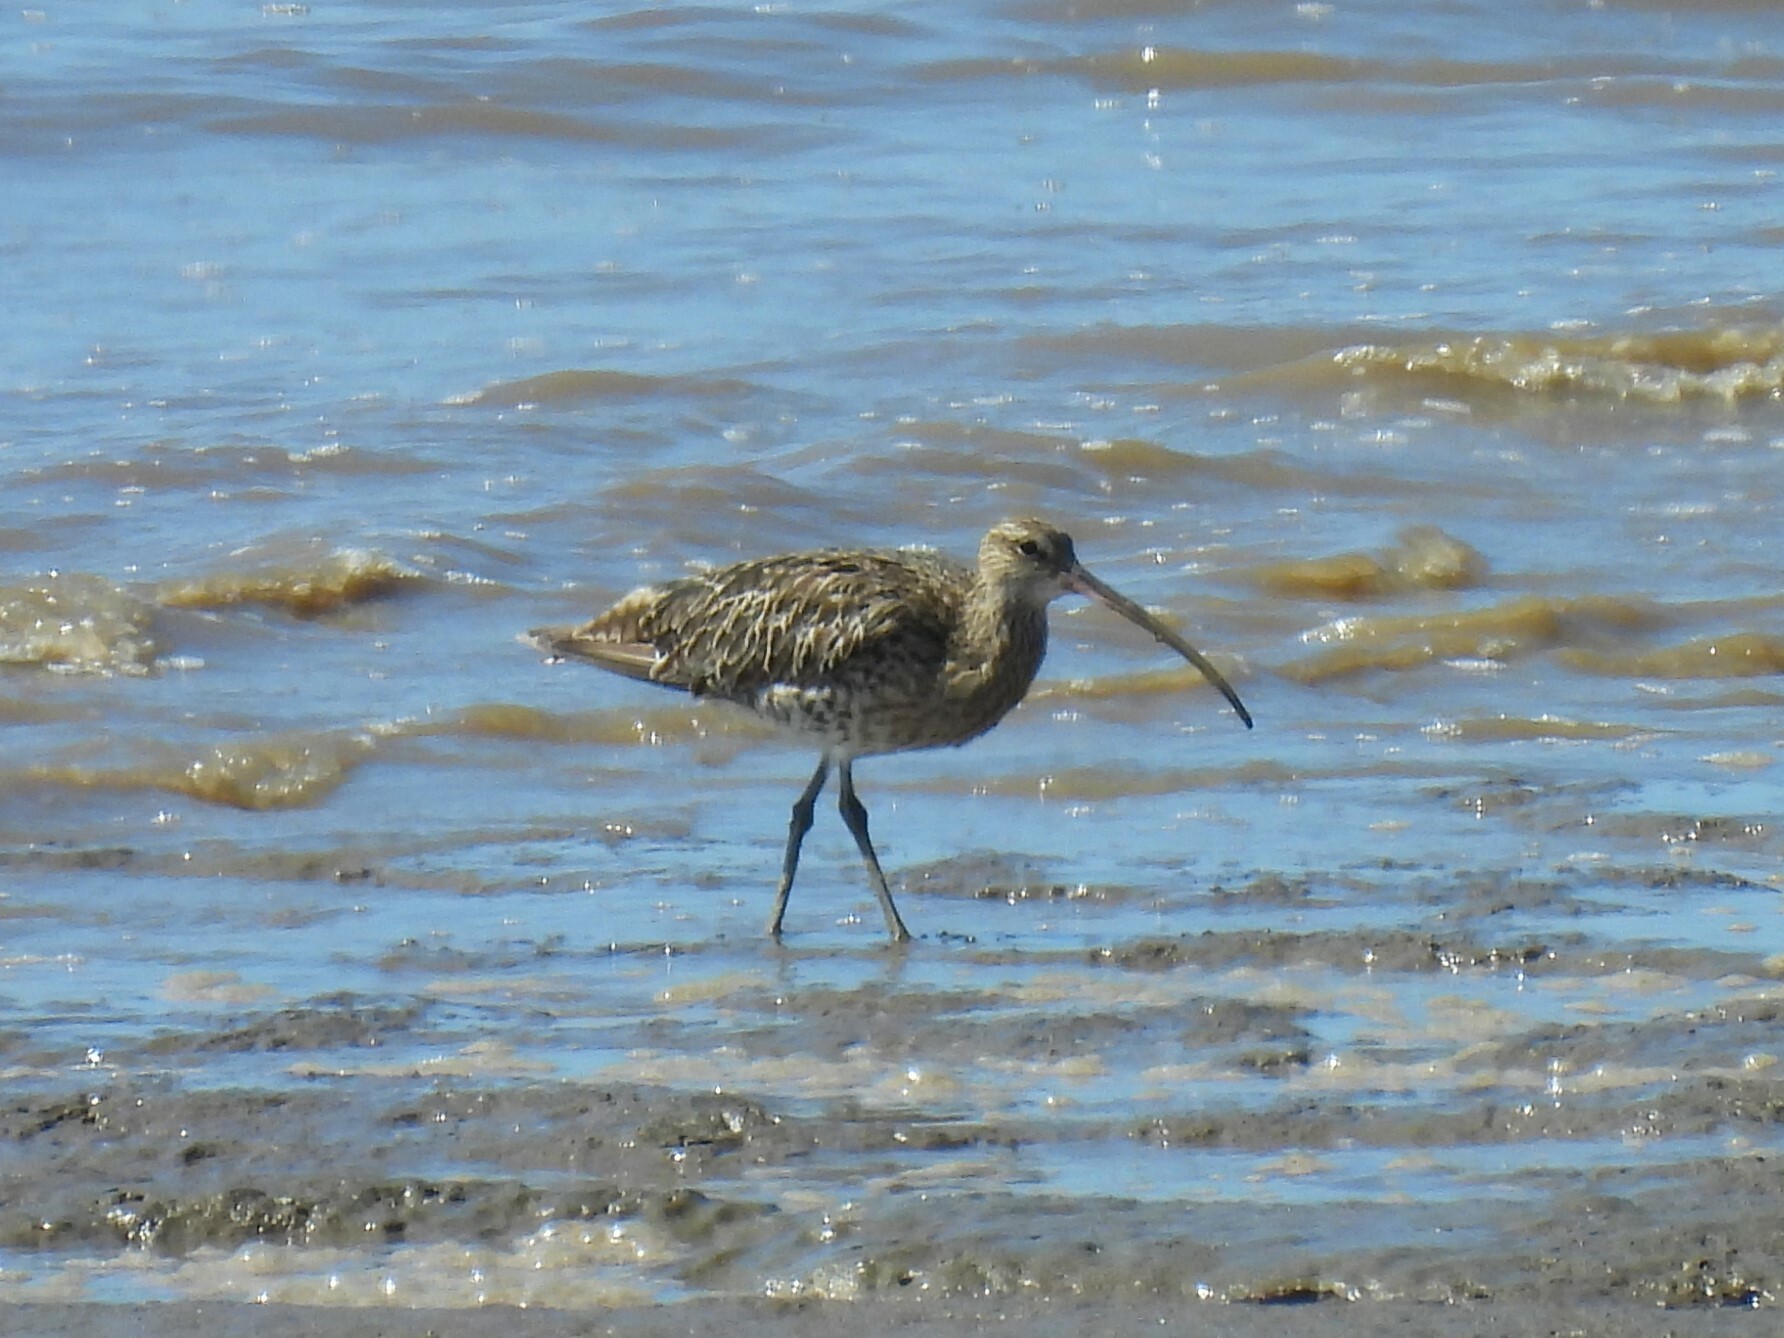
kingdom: Animalia
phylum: Chordata
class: Aves
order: Charadriiformes
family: Scolopacidae
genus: Numenius
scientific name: Numenius arquata
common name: Eurasian curlew
